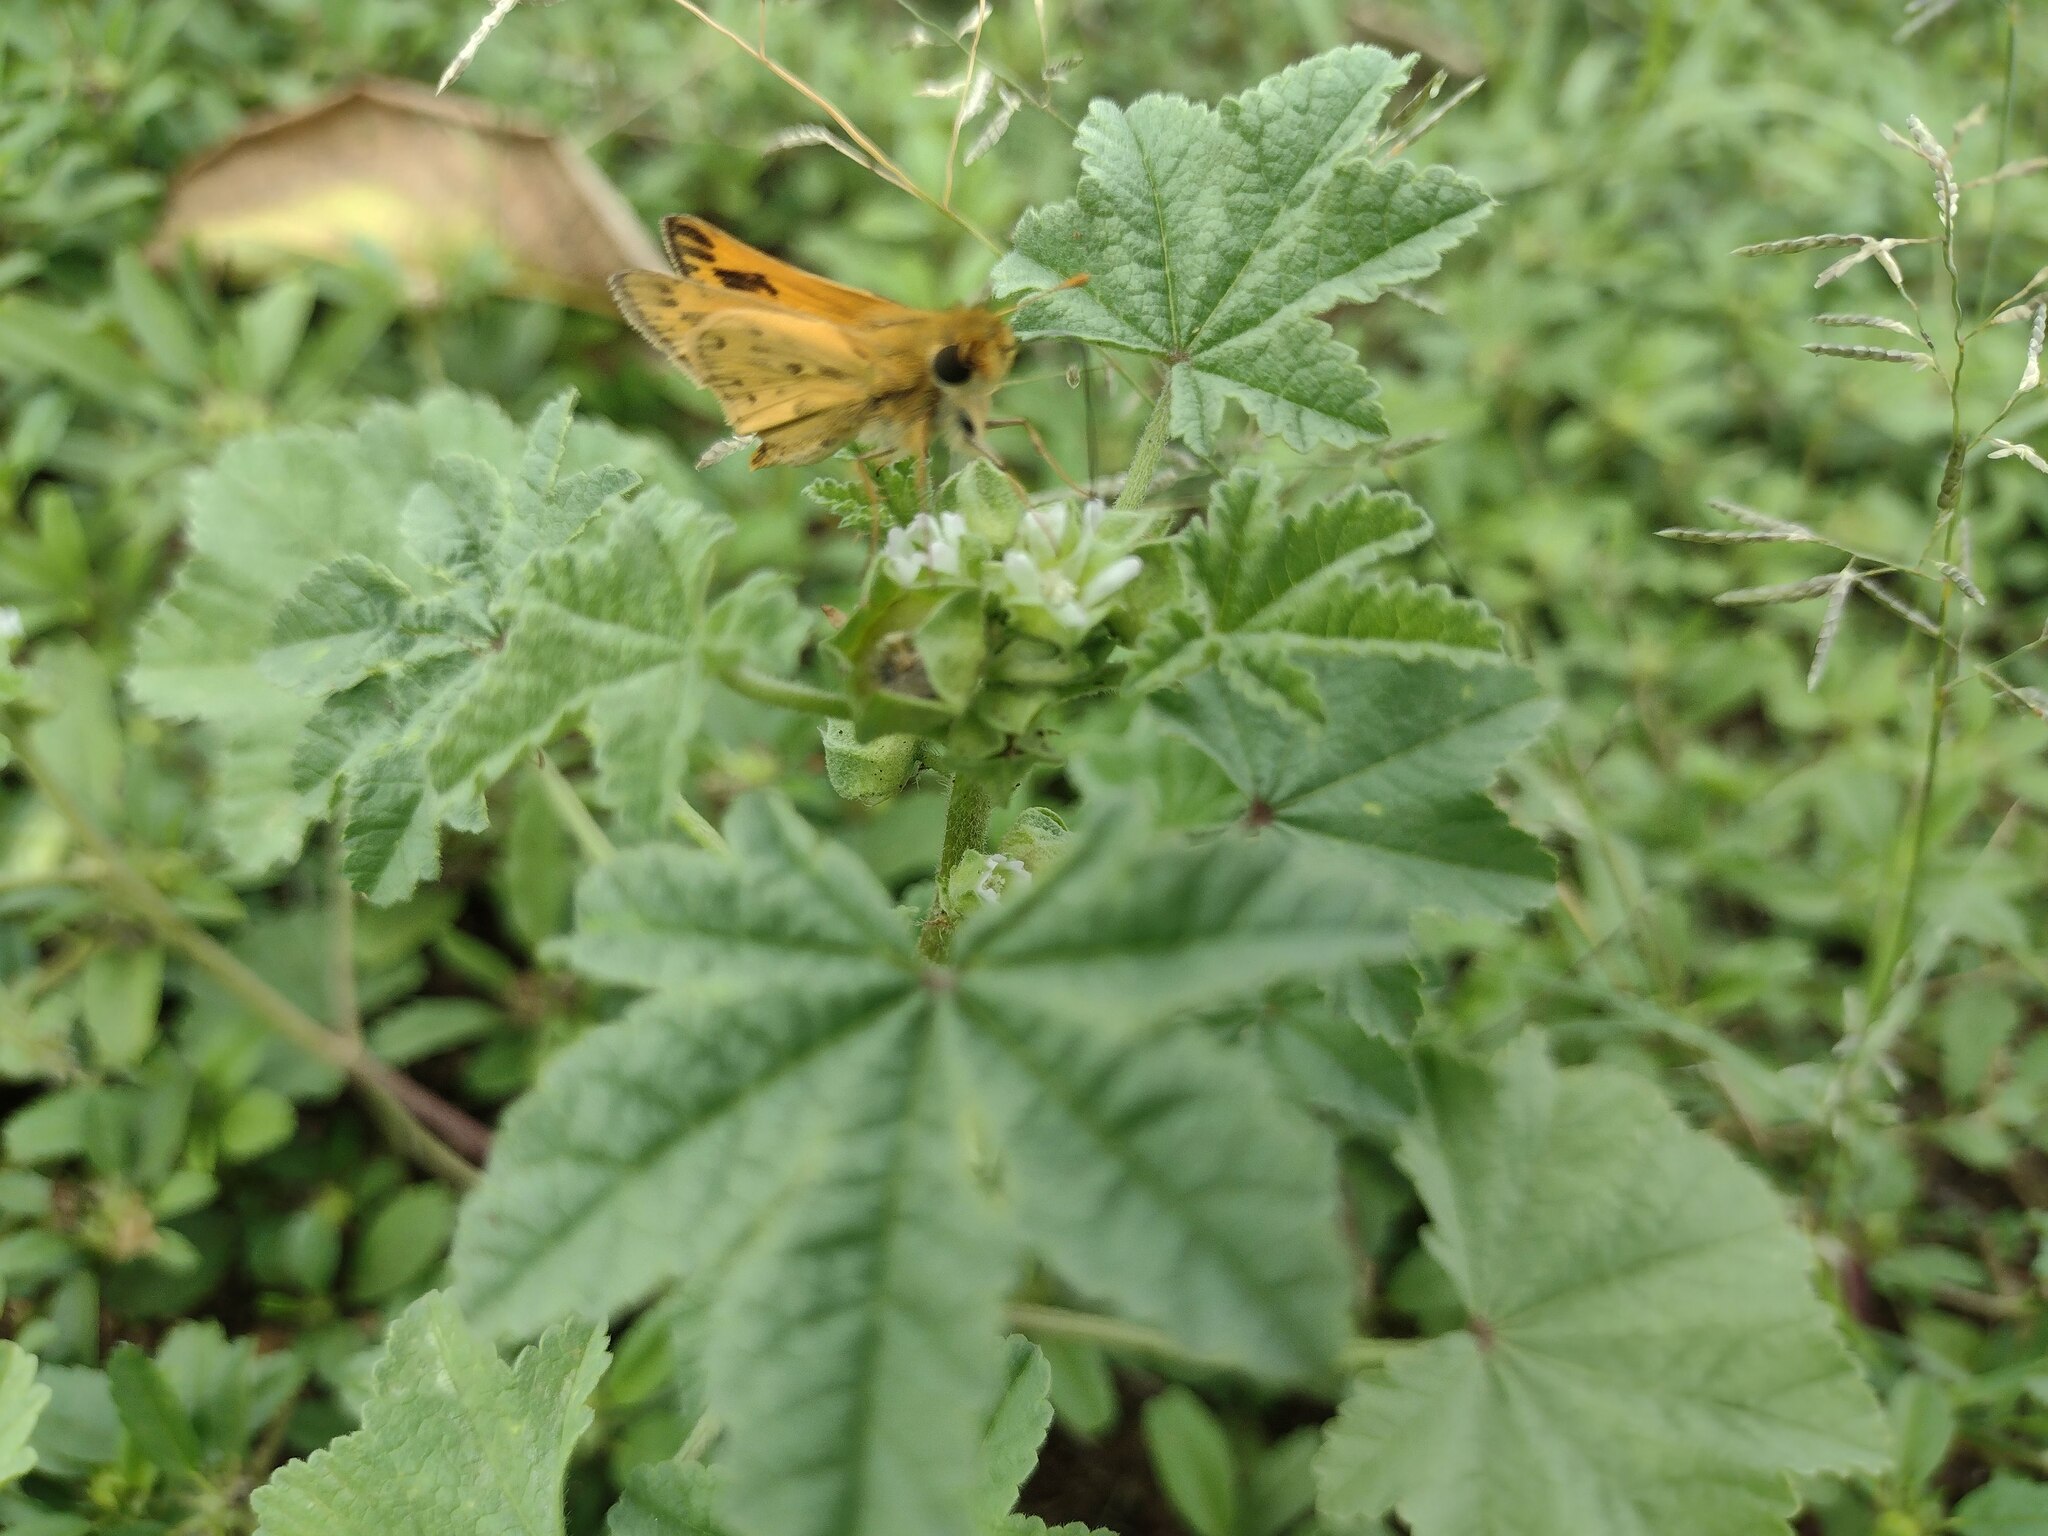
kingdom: Animalia
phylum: Arthropoda
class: Insecta
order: Lepidoptera
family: Hesperiidae
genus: Hylephila
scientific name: Hylephila phyleus
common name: Fiery skipper
